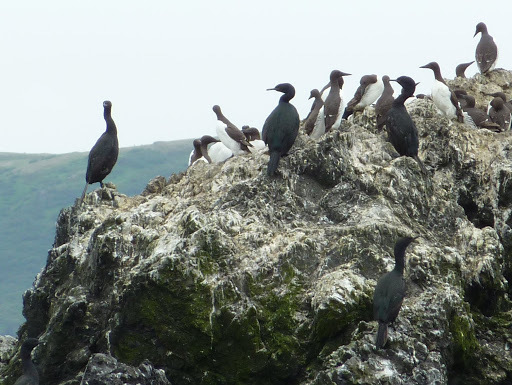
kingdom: Animalia
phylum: Chordata
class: Aves
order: Suliformes
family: Phalacrocoracidae
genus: Phalacrocorax
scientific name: Phalacrocorax pelagicus
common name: Pelagic cormorant
